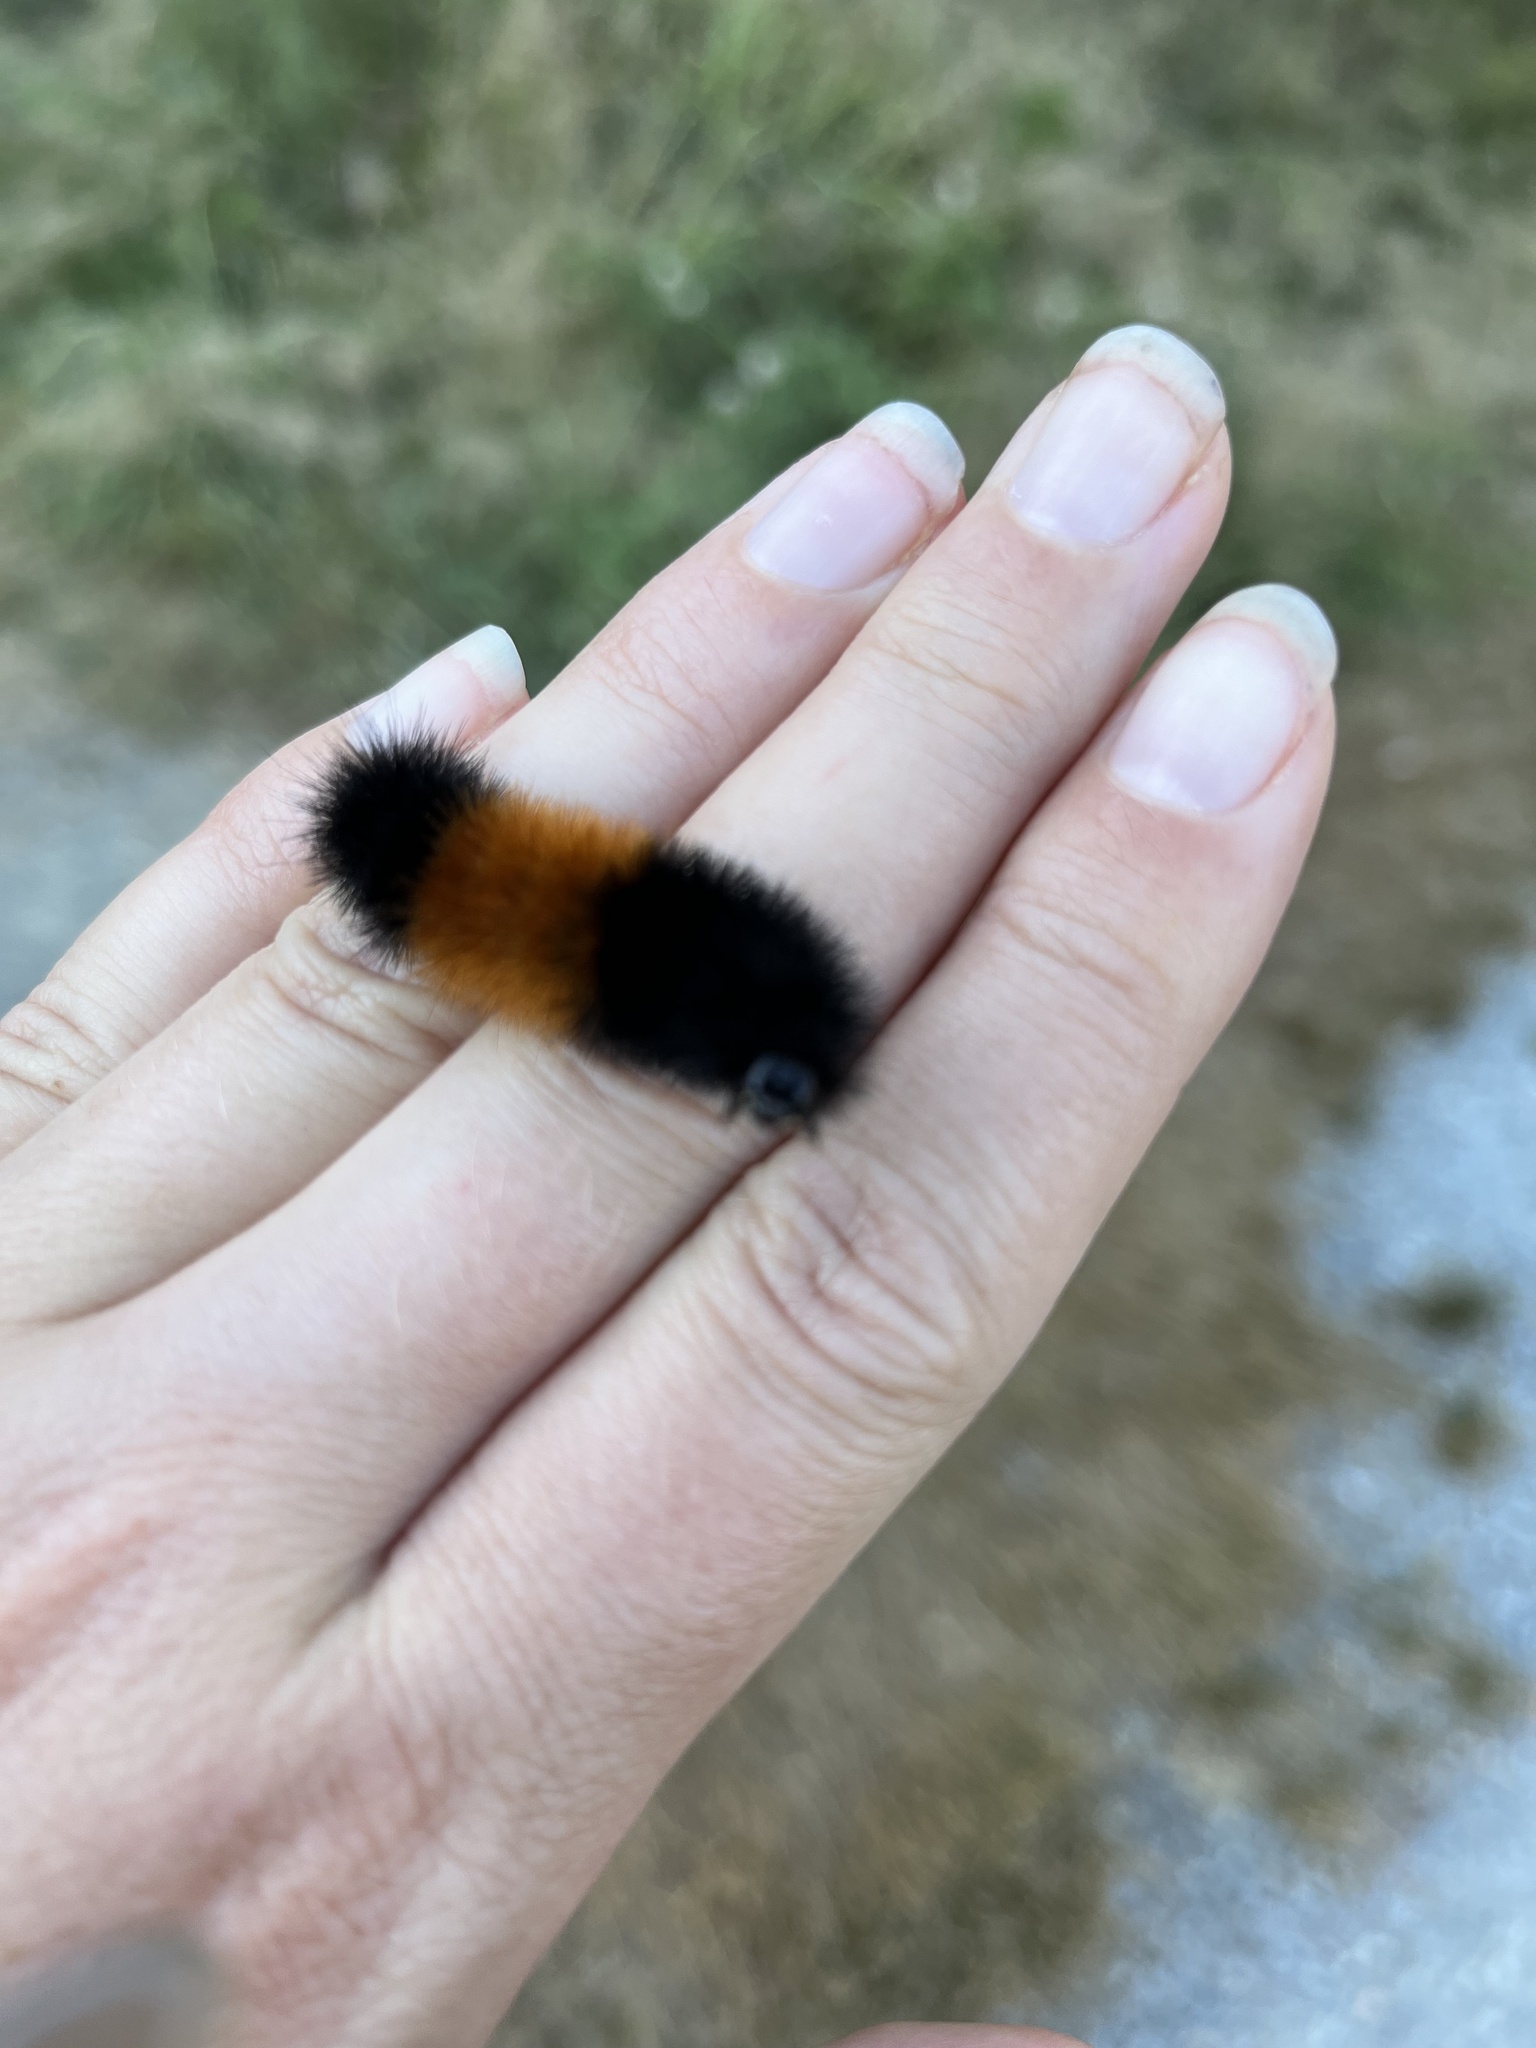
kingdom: Animalia
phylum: Arthropoda
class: Insecta
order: Lepidoptera
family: Erebidae
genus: Pyrrharctia
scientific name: Pyrrharctia isabella
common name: Isabella tiger moth
